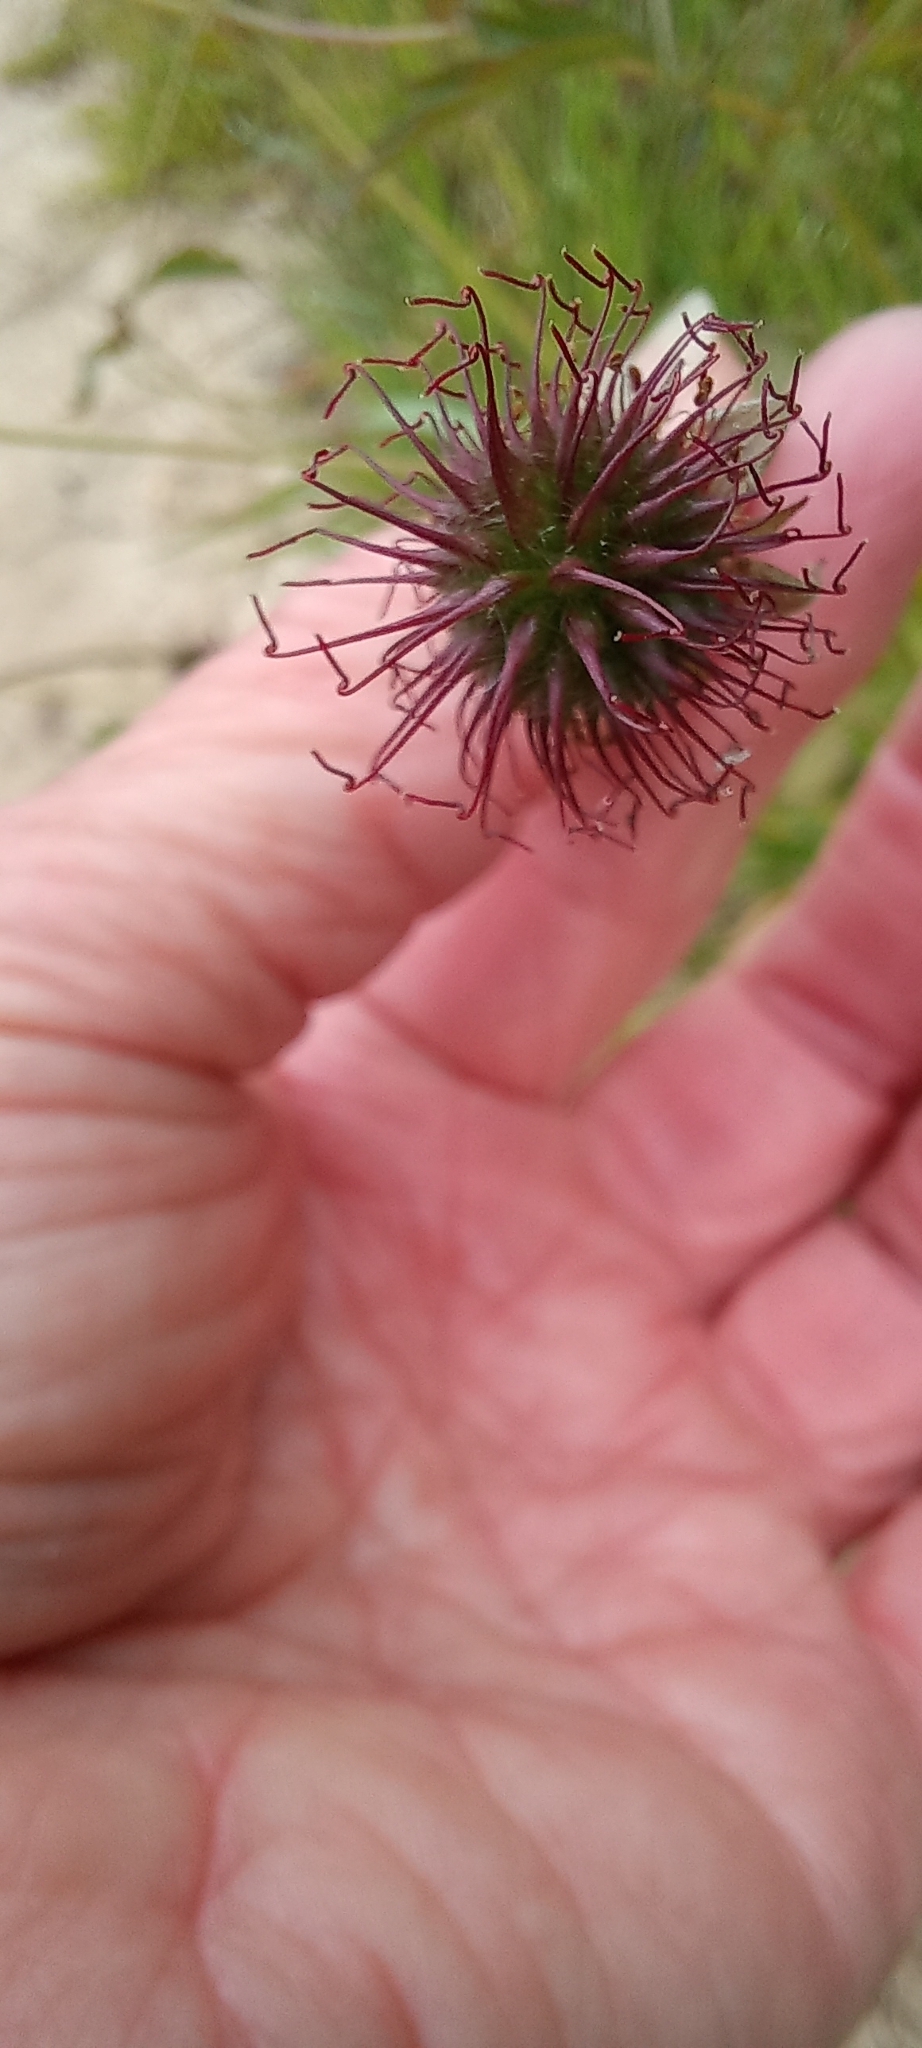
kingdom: Plantae
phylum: Tracheophyta
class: Magnoliopsida
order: Rosales
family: Rosaceae
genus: Geum
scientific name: Geum urbanum
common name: Wood avens
